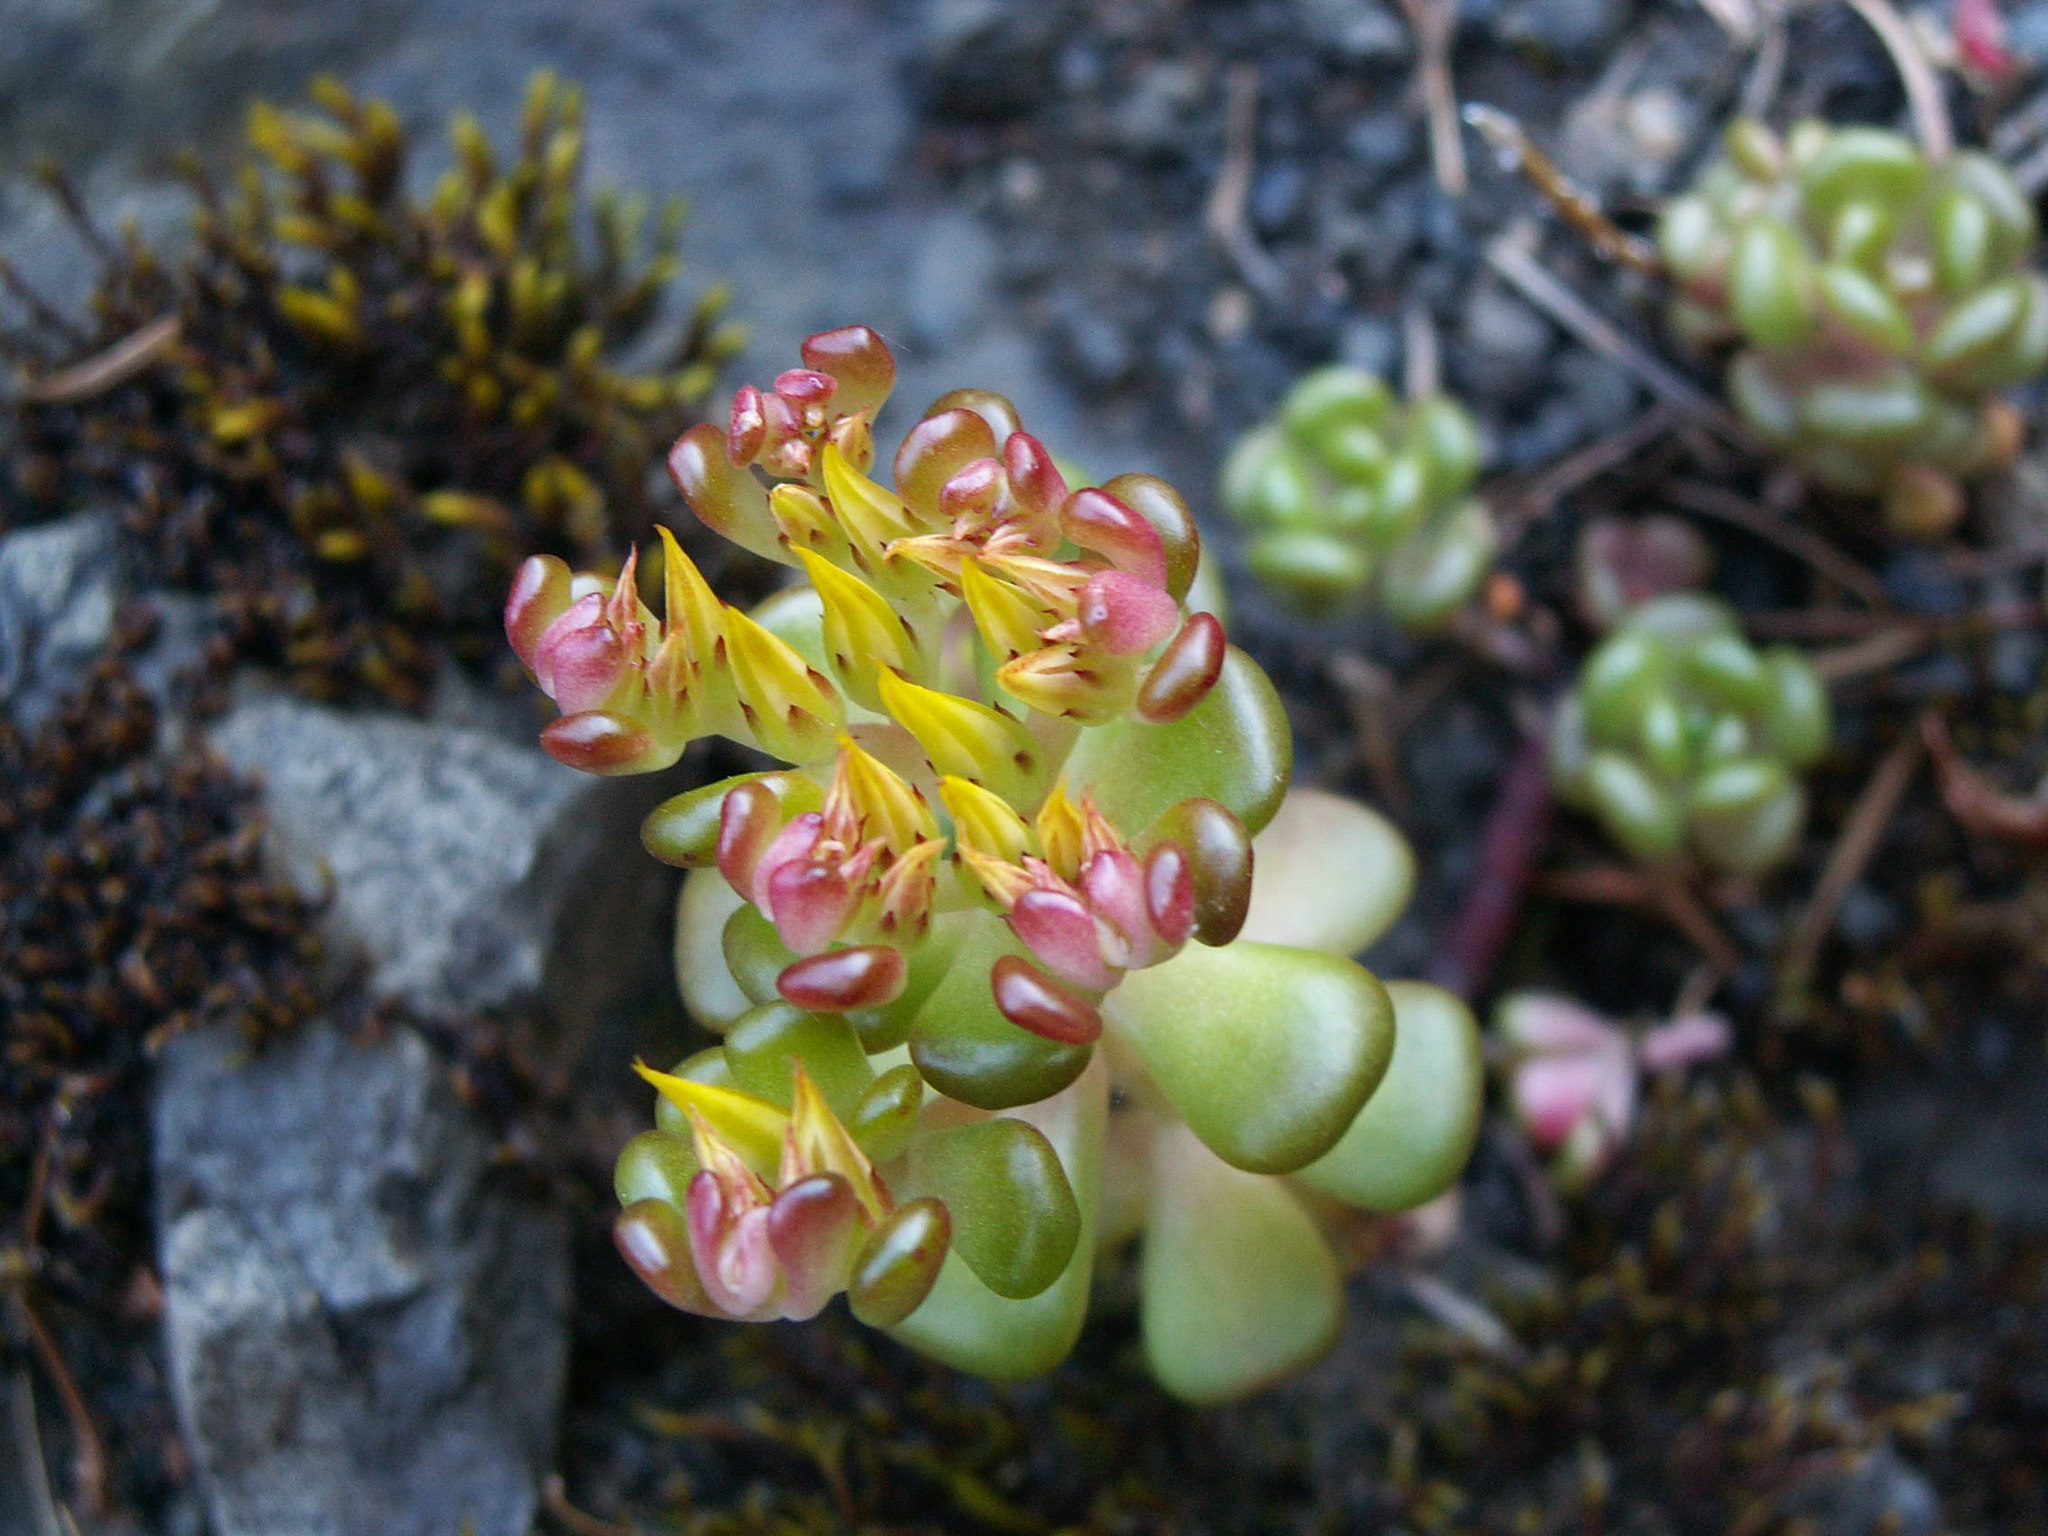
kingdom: Plantae
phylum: Tracheophyta
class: Magnoliopsida
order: Saxifragales
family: Crassulaceae
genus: Sedum
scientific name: Sedum oreganum
